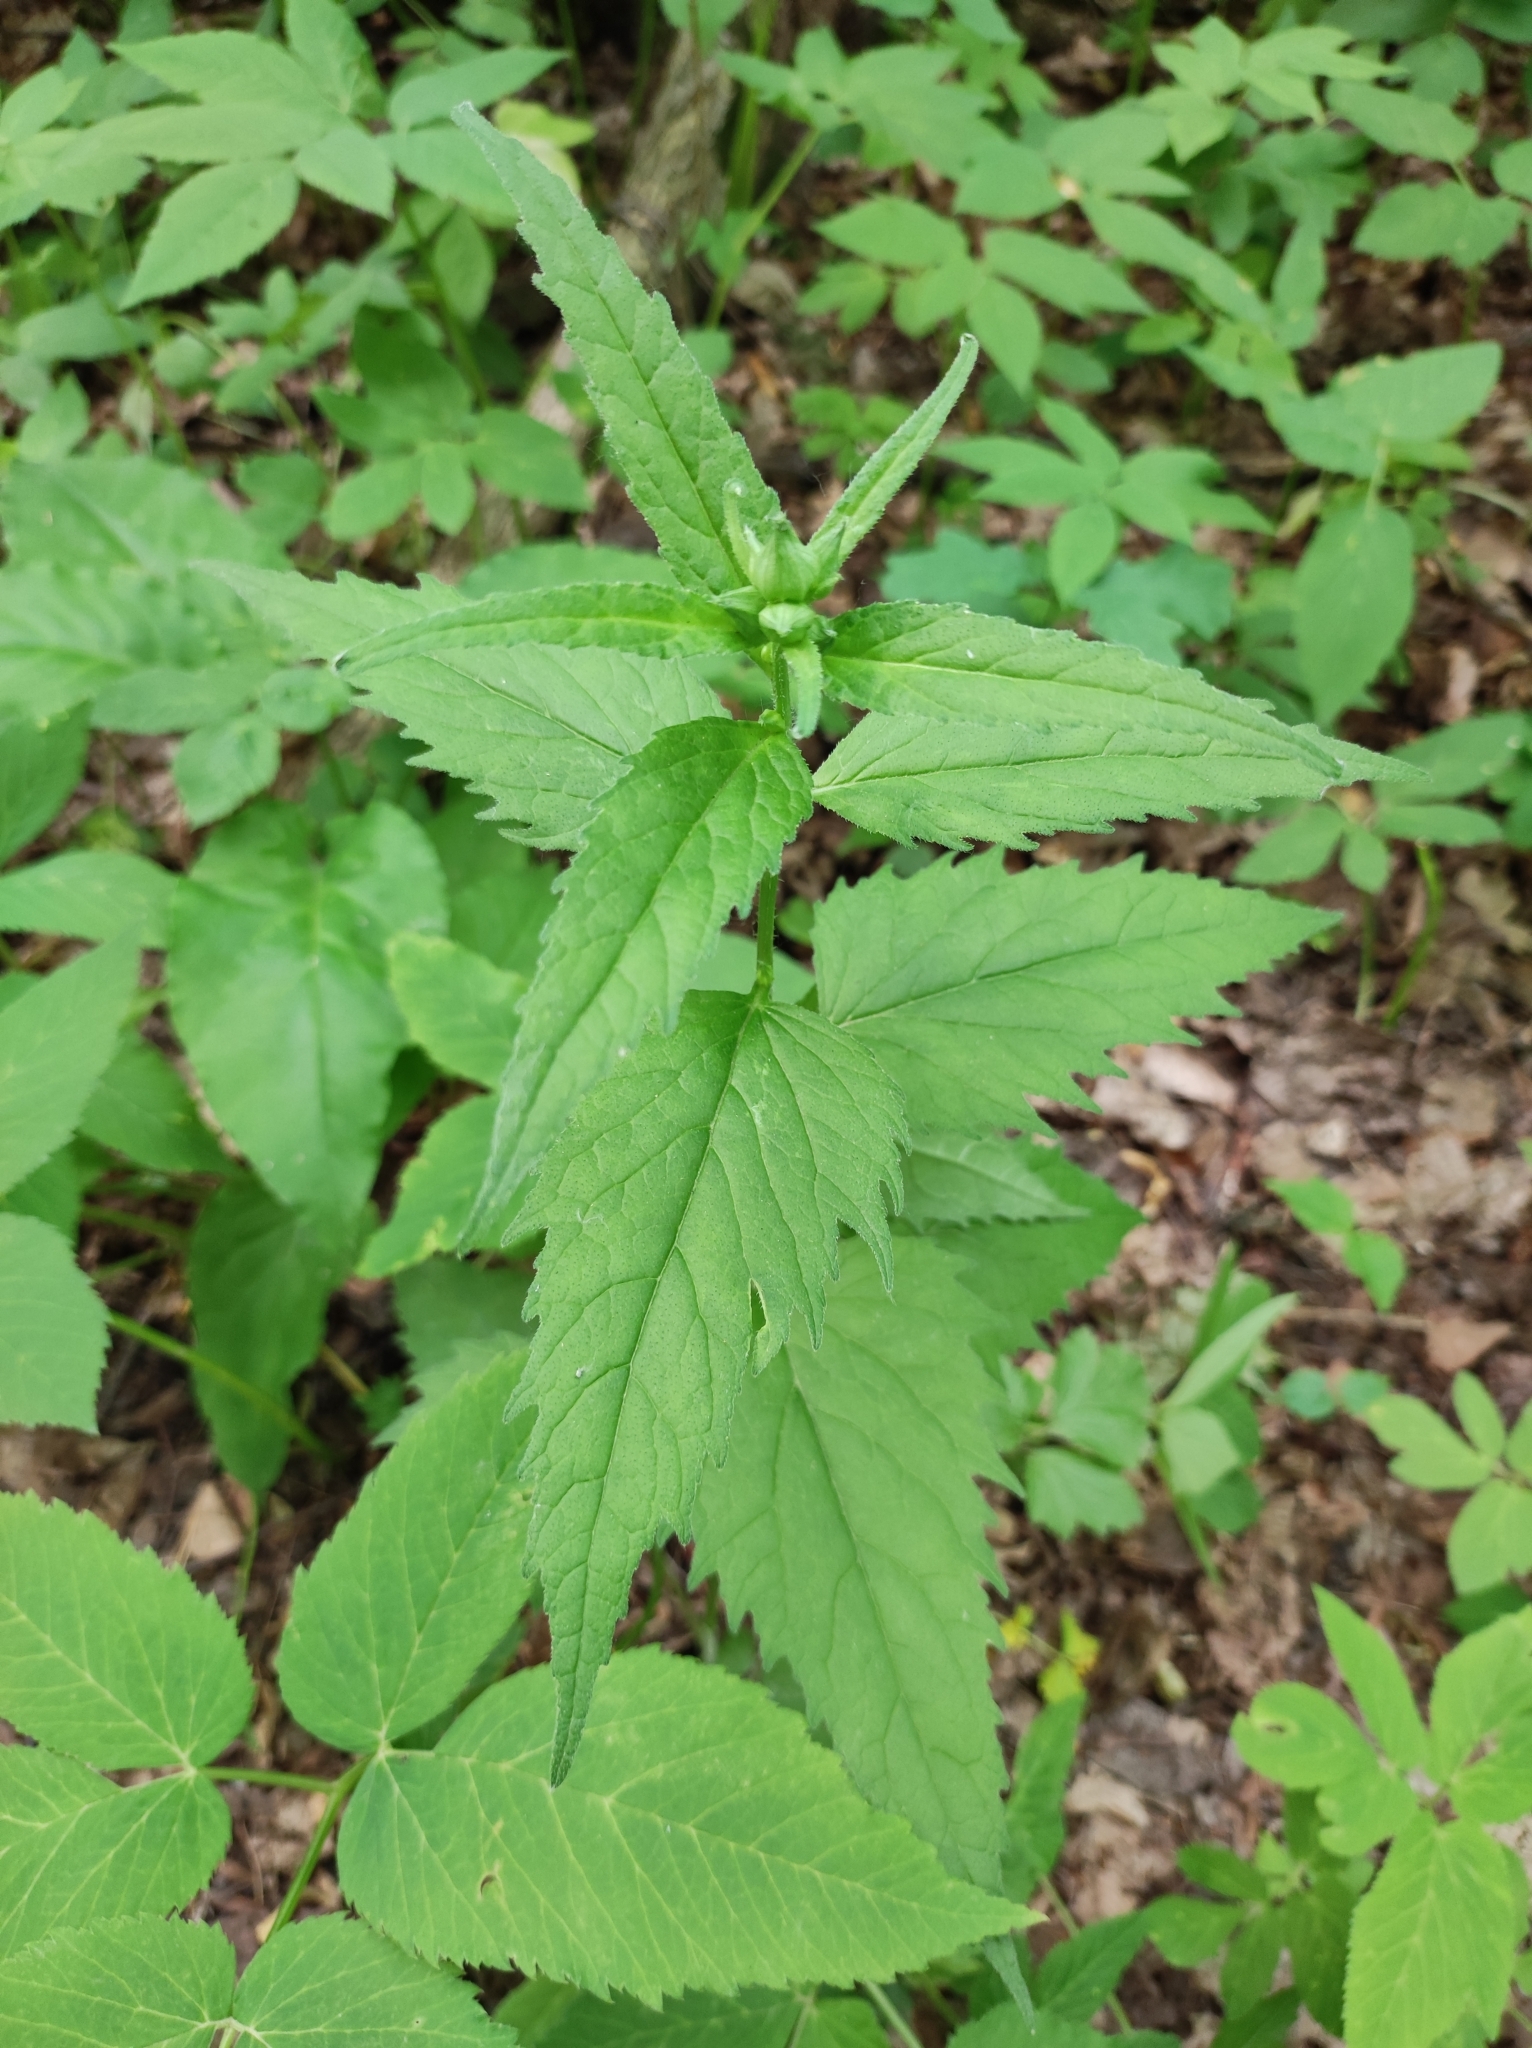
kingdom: Plantae
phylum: Tracheophyta
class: Magnoliopsida
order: Asterales
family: Campanulaceae
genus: Campanula
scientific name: Campanula trachelium
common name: Nettle-leaved bellflower
